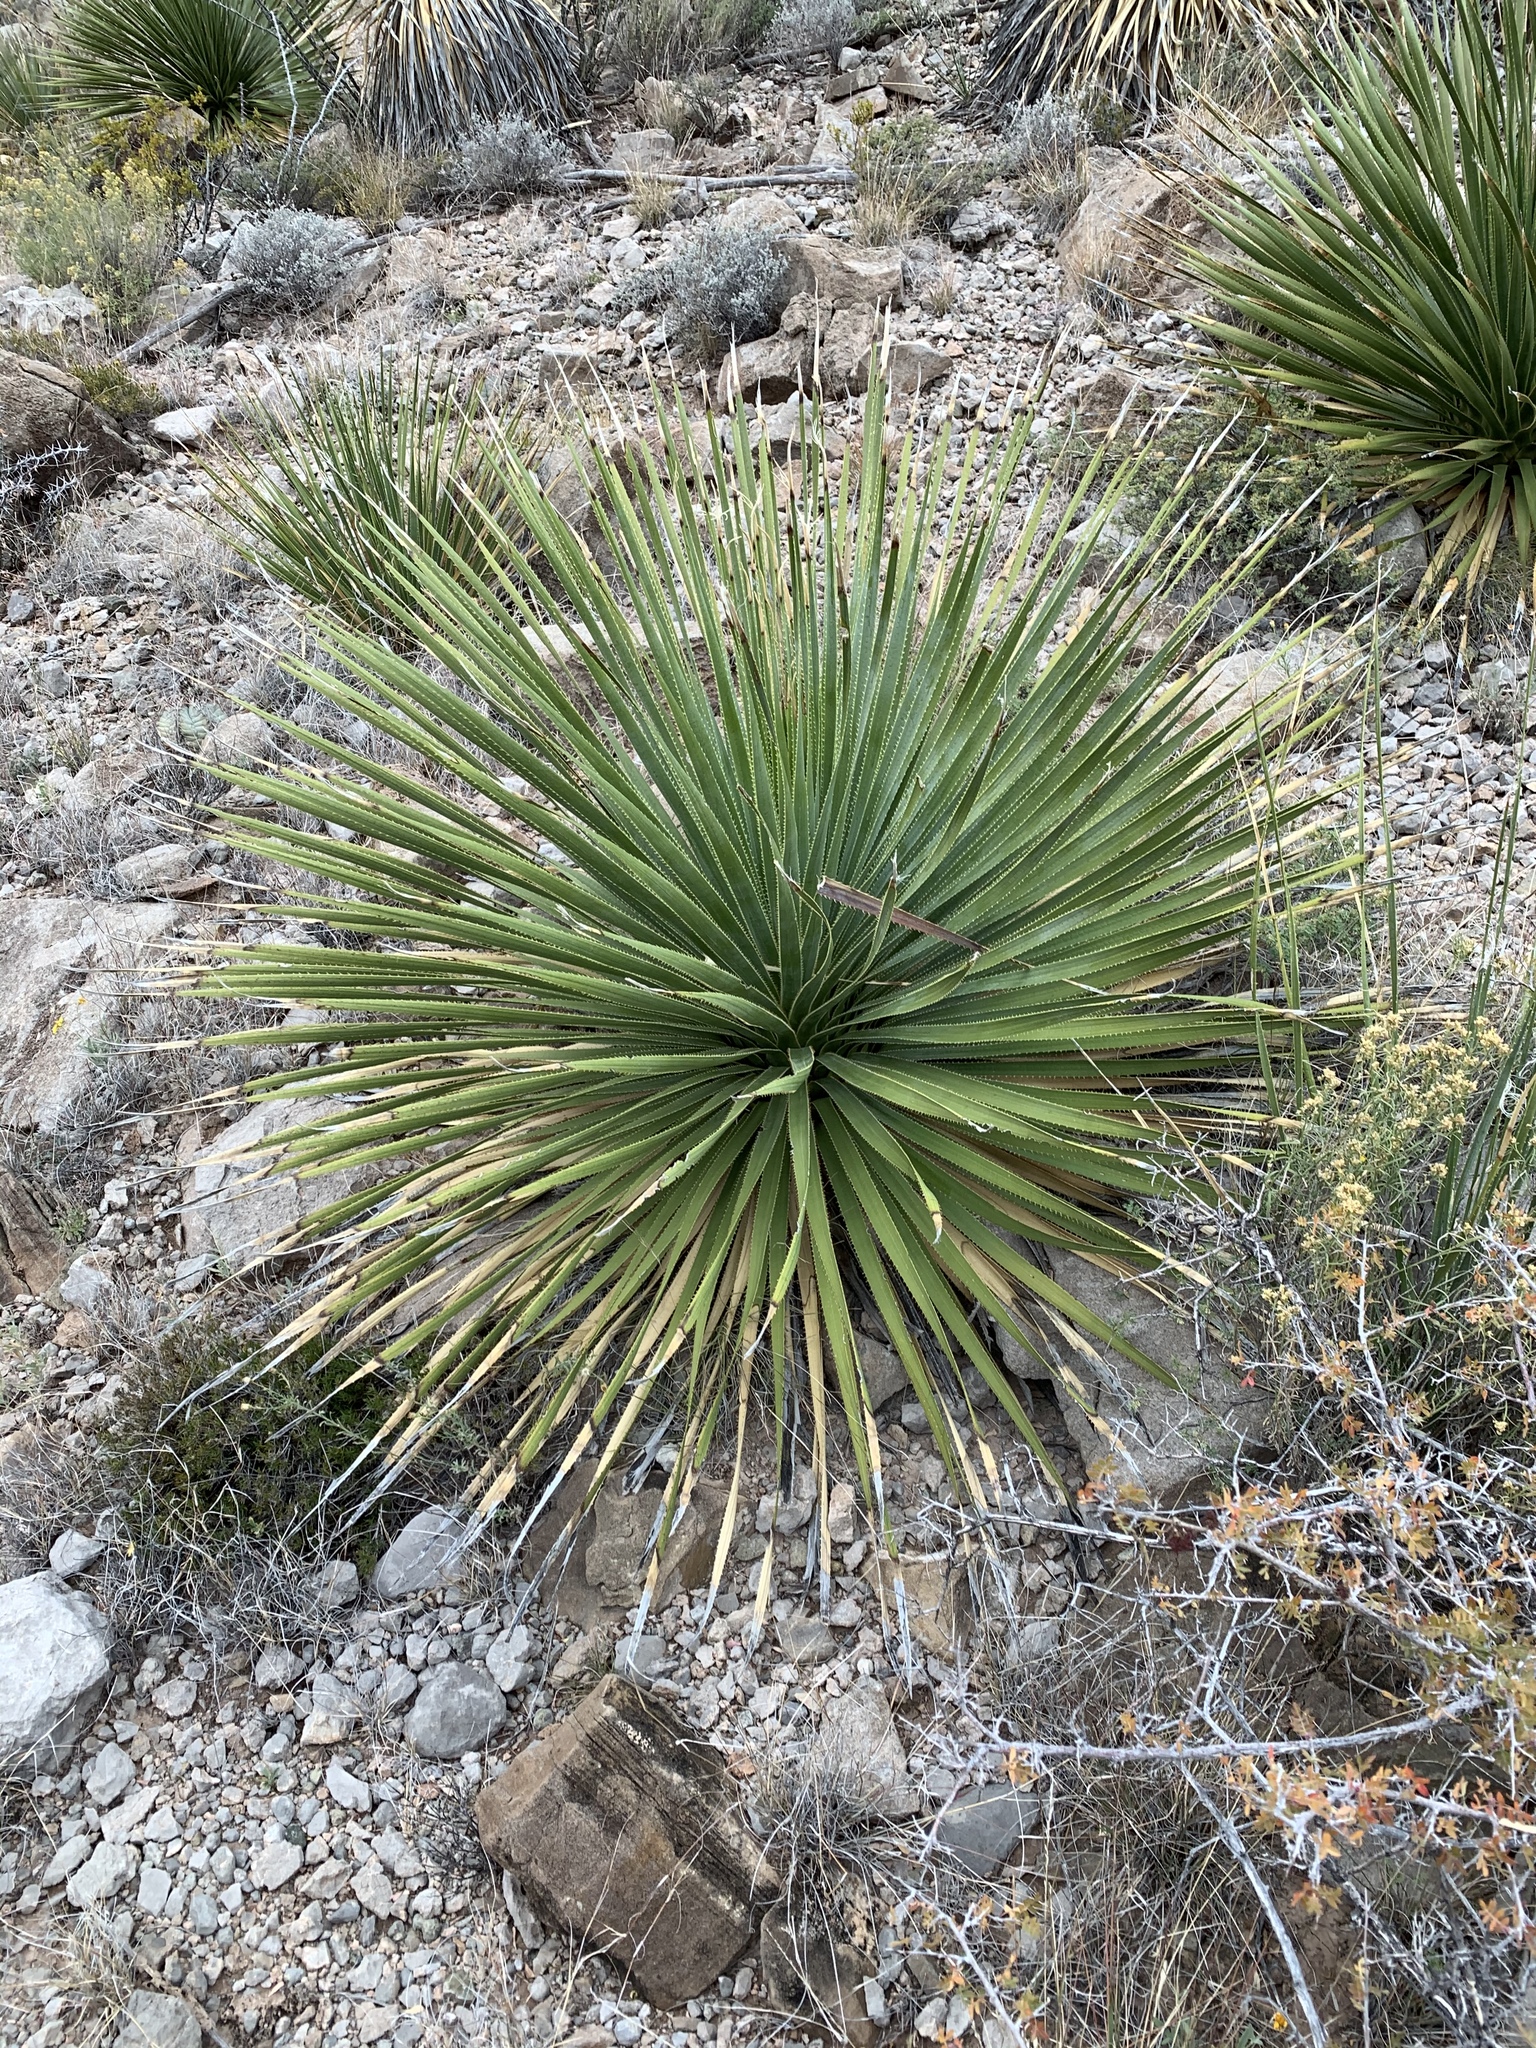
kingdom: Plantae
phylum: Tracheophyta
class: Liliopsida
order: Asparagales
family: Asparagaceae
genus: Dasylirion
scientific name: Dasylirion wheeleri
